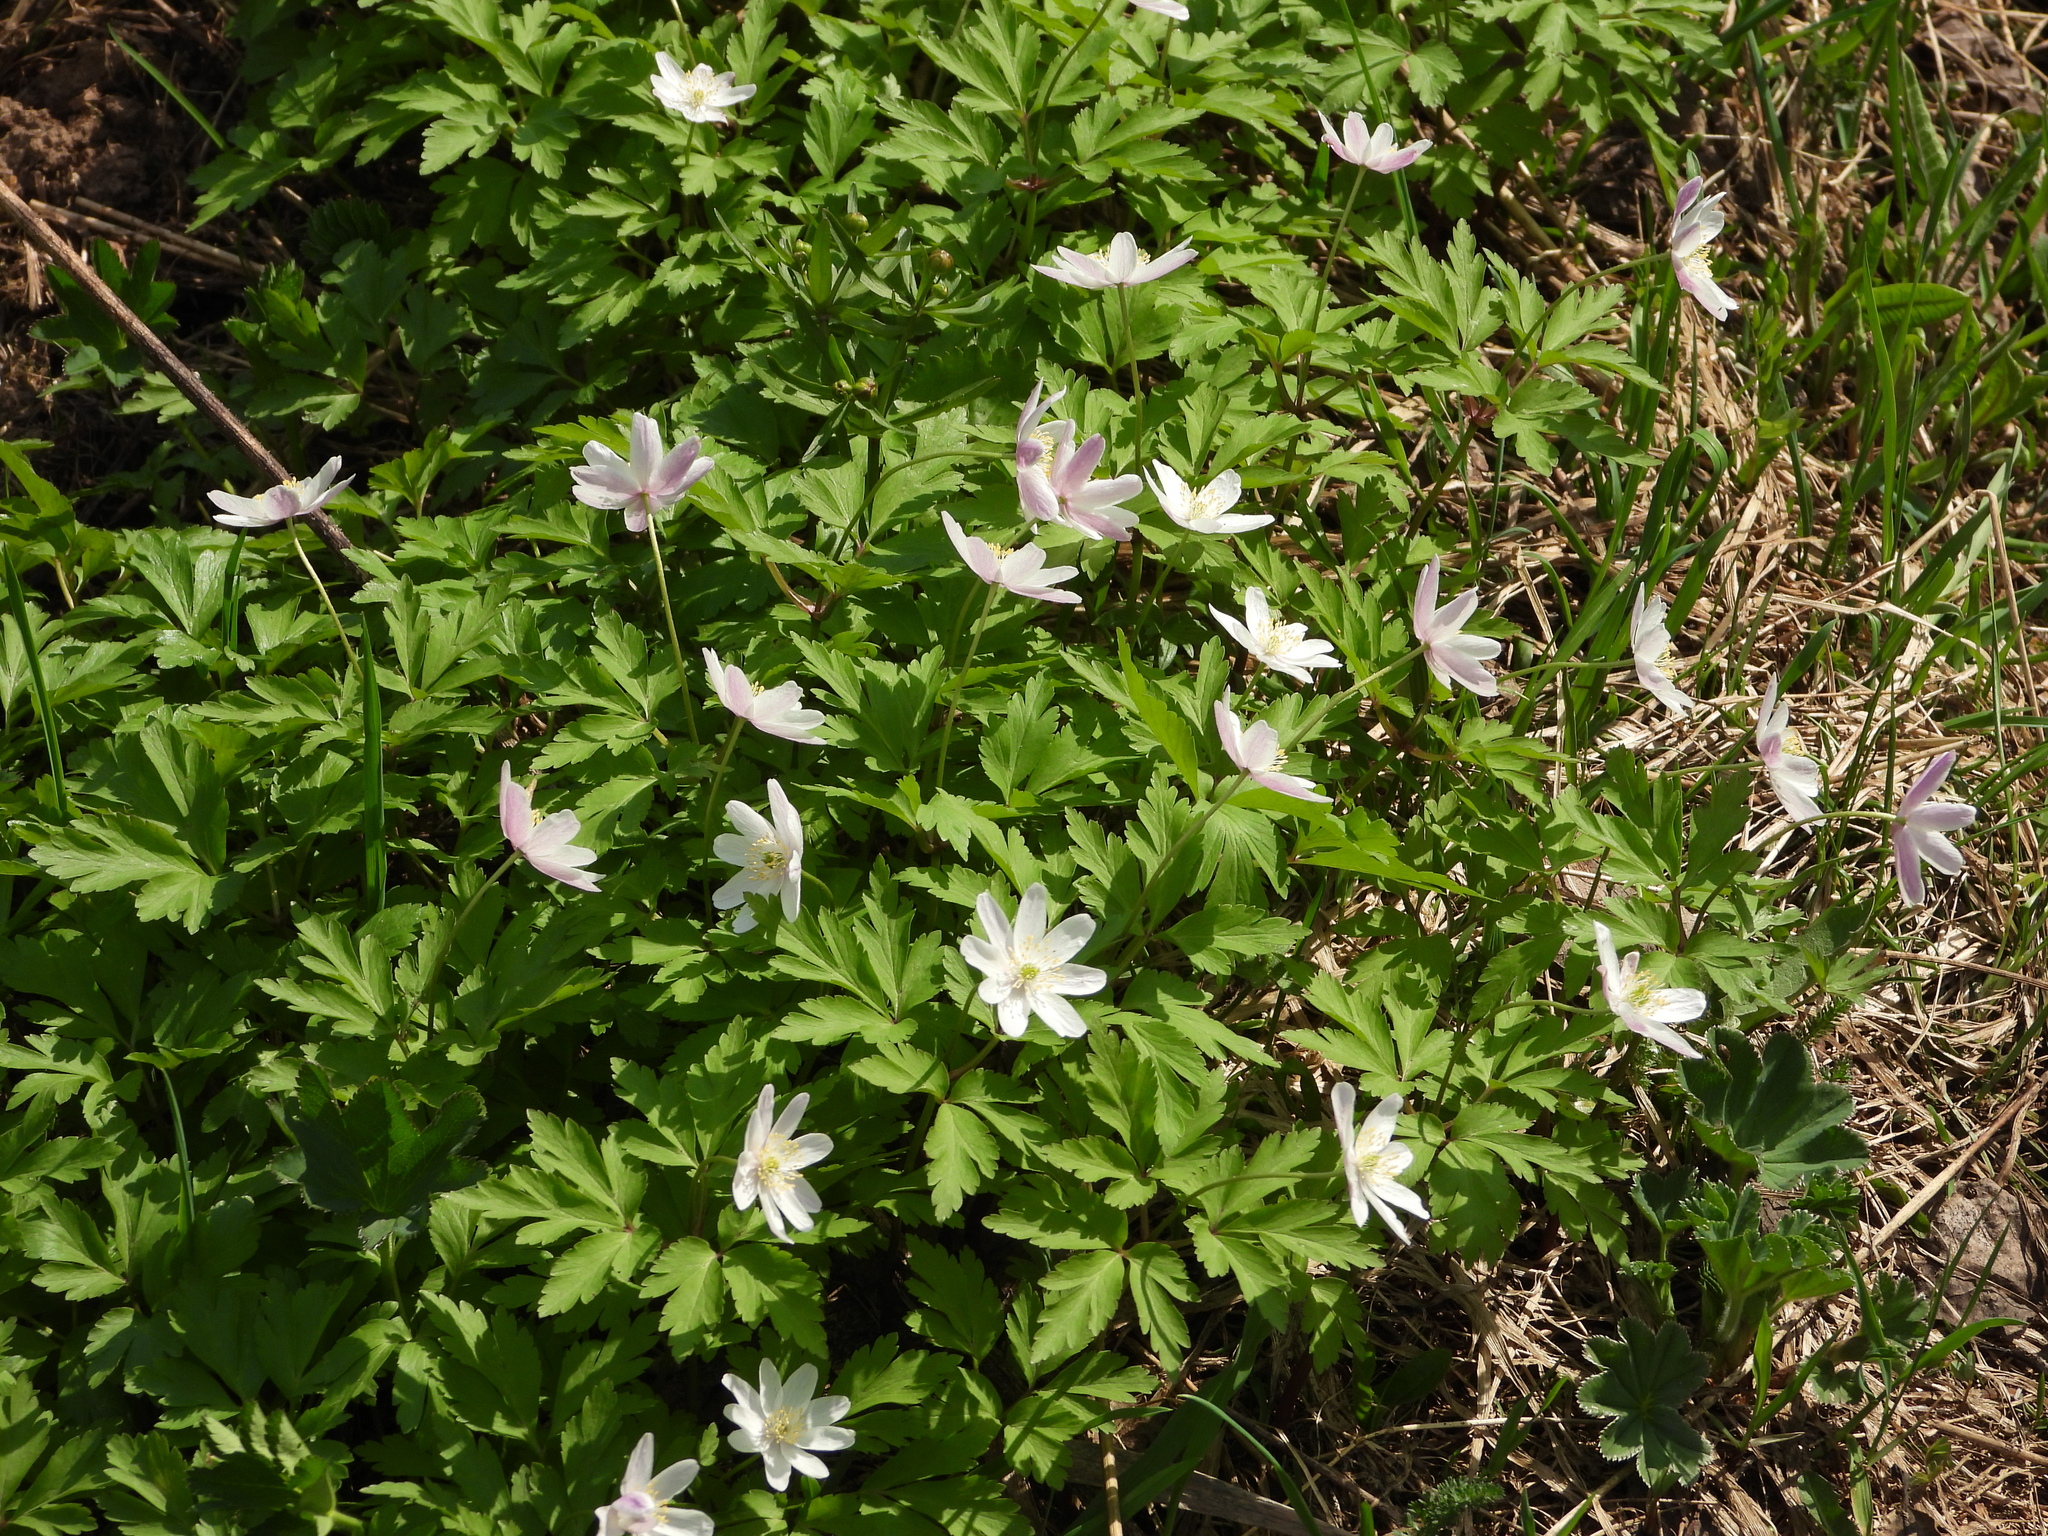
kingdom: Plantae
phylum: Tracheophyta
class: Magnoliopsida
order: Ranunculales
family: Ranunculaceae
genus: Anemone
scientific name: Anemone altaica
